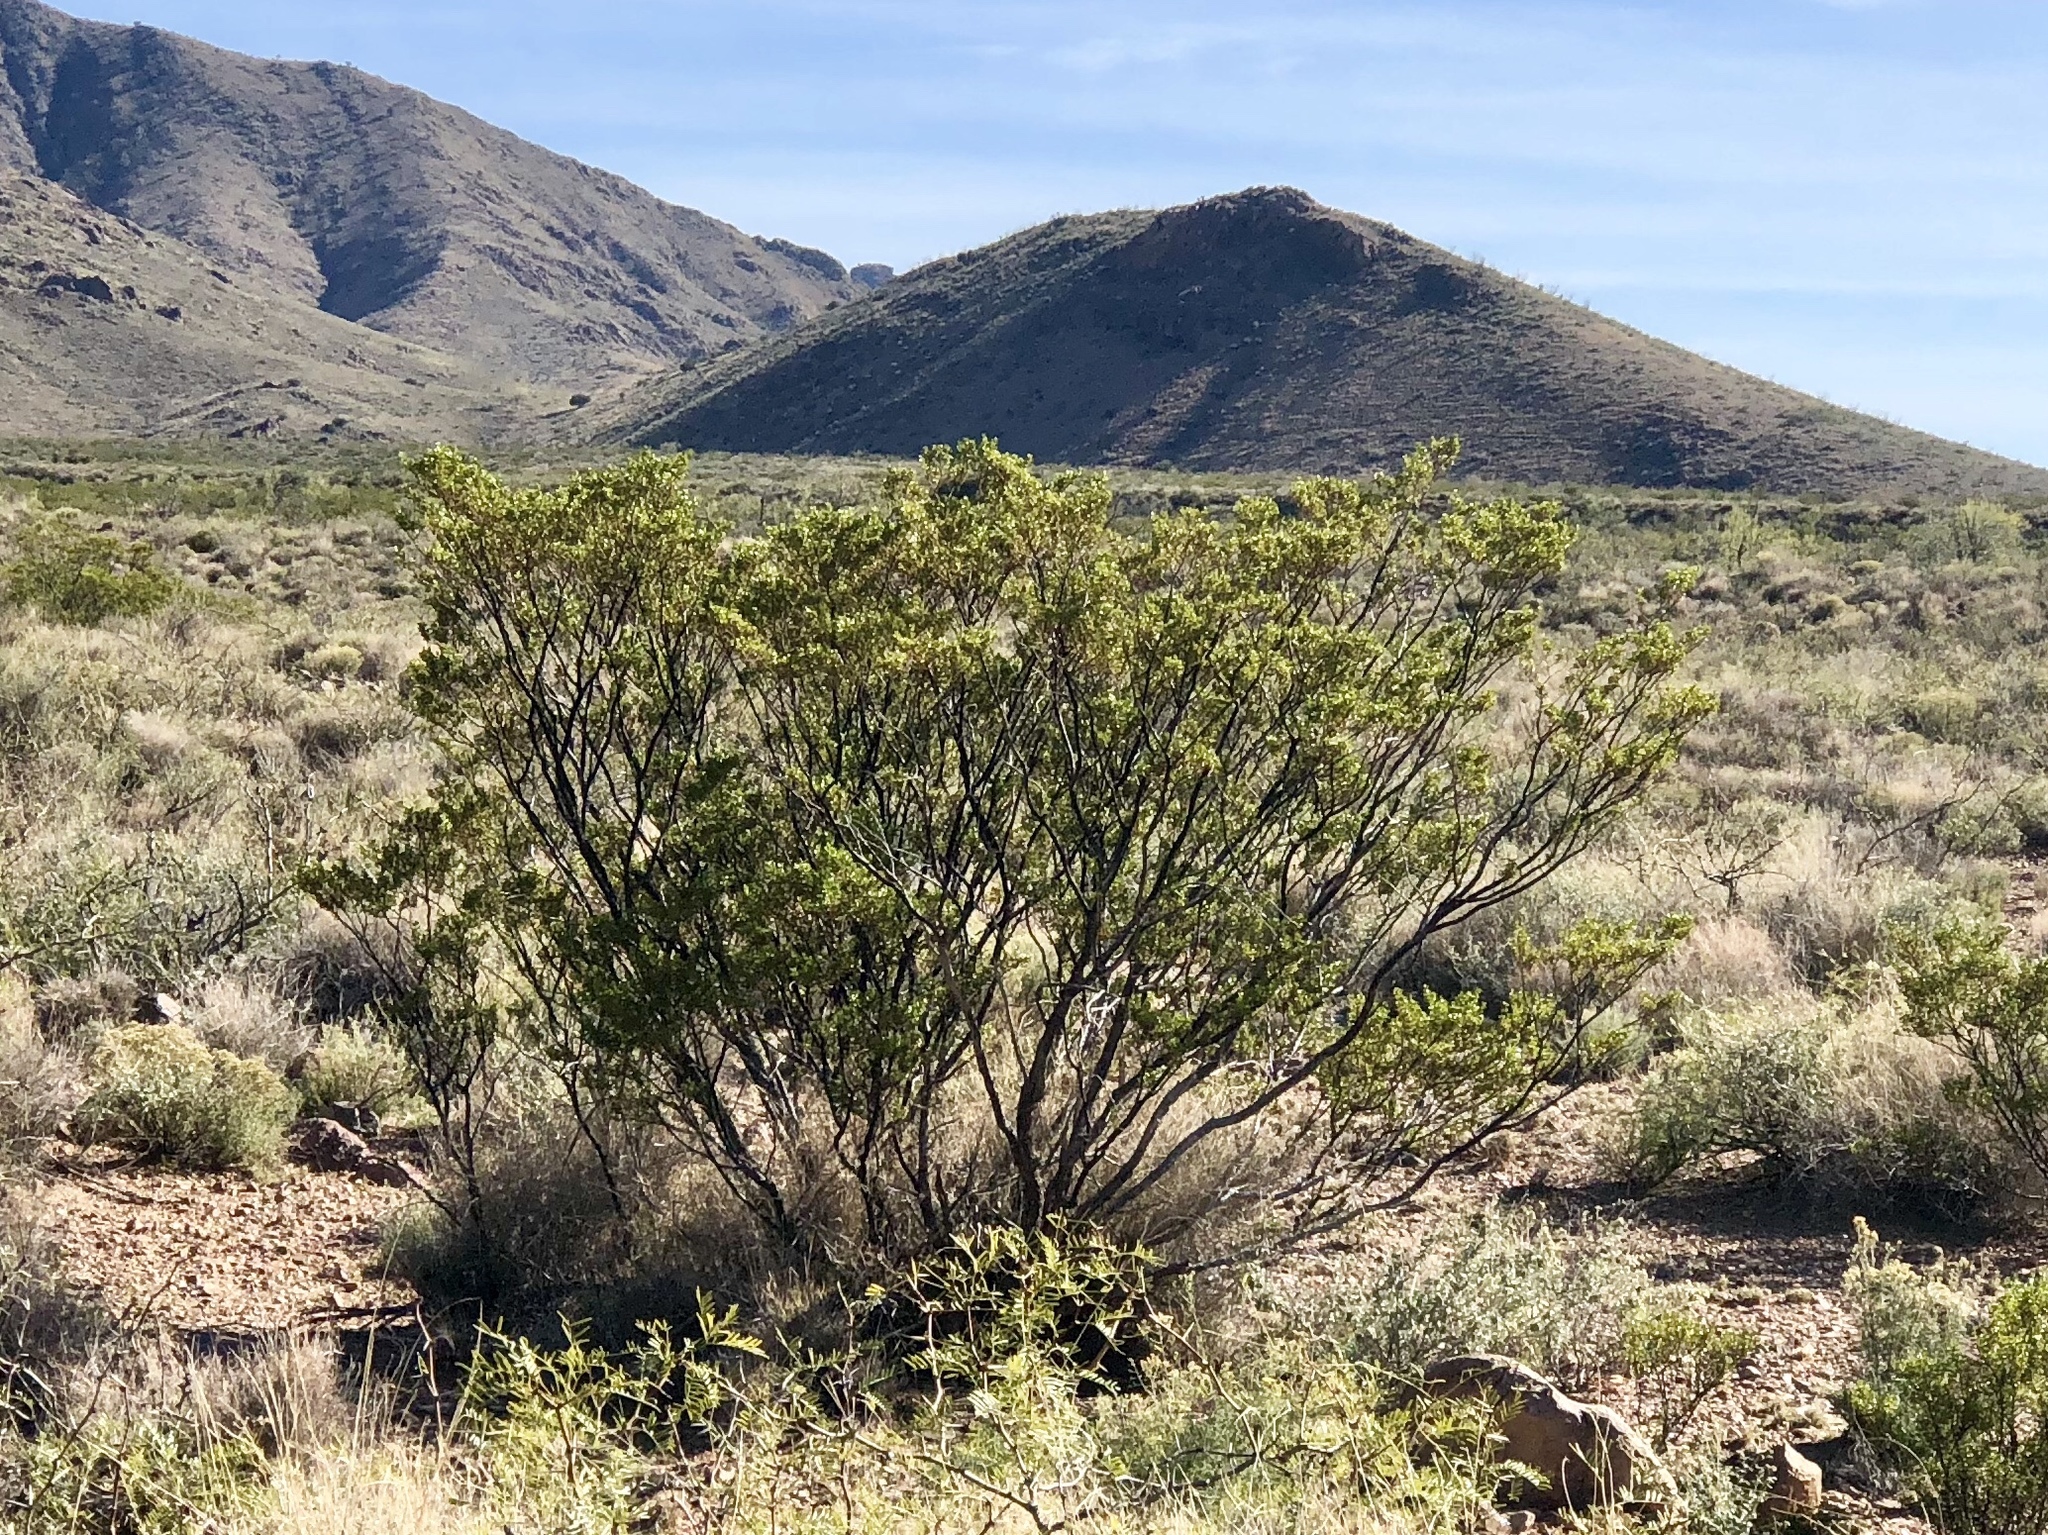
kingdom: Plantae
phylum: Tracheophyta
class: Magnoliopsida
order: Zygophyllales
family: Zygophyllaceae
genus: Larrea
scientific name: Larrea tridentata
